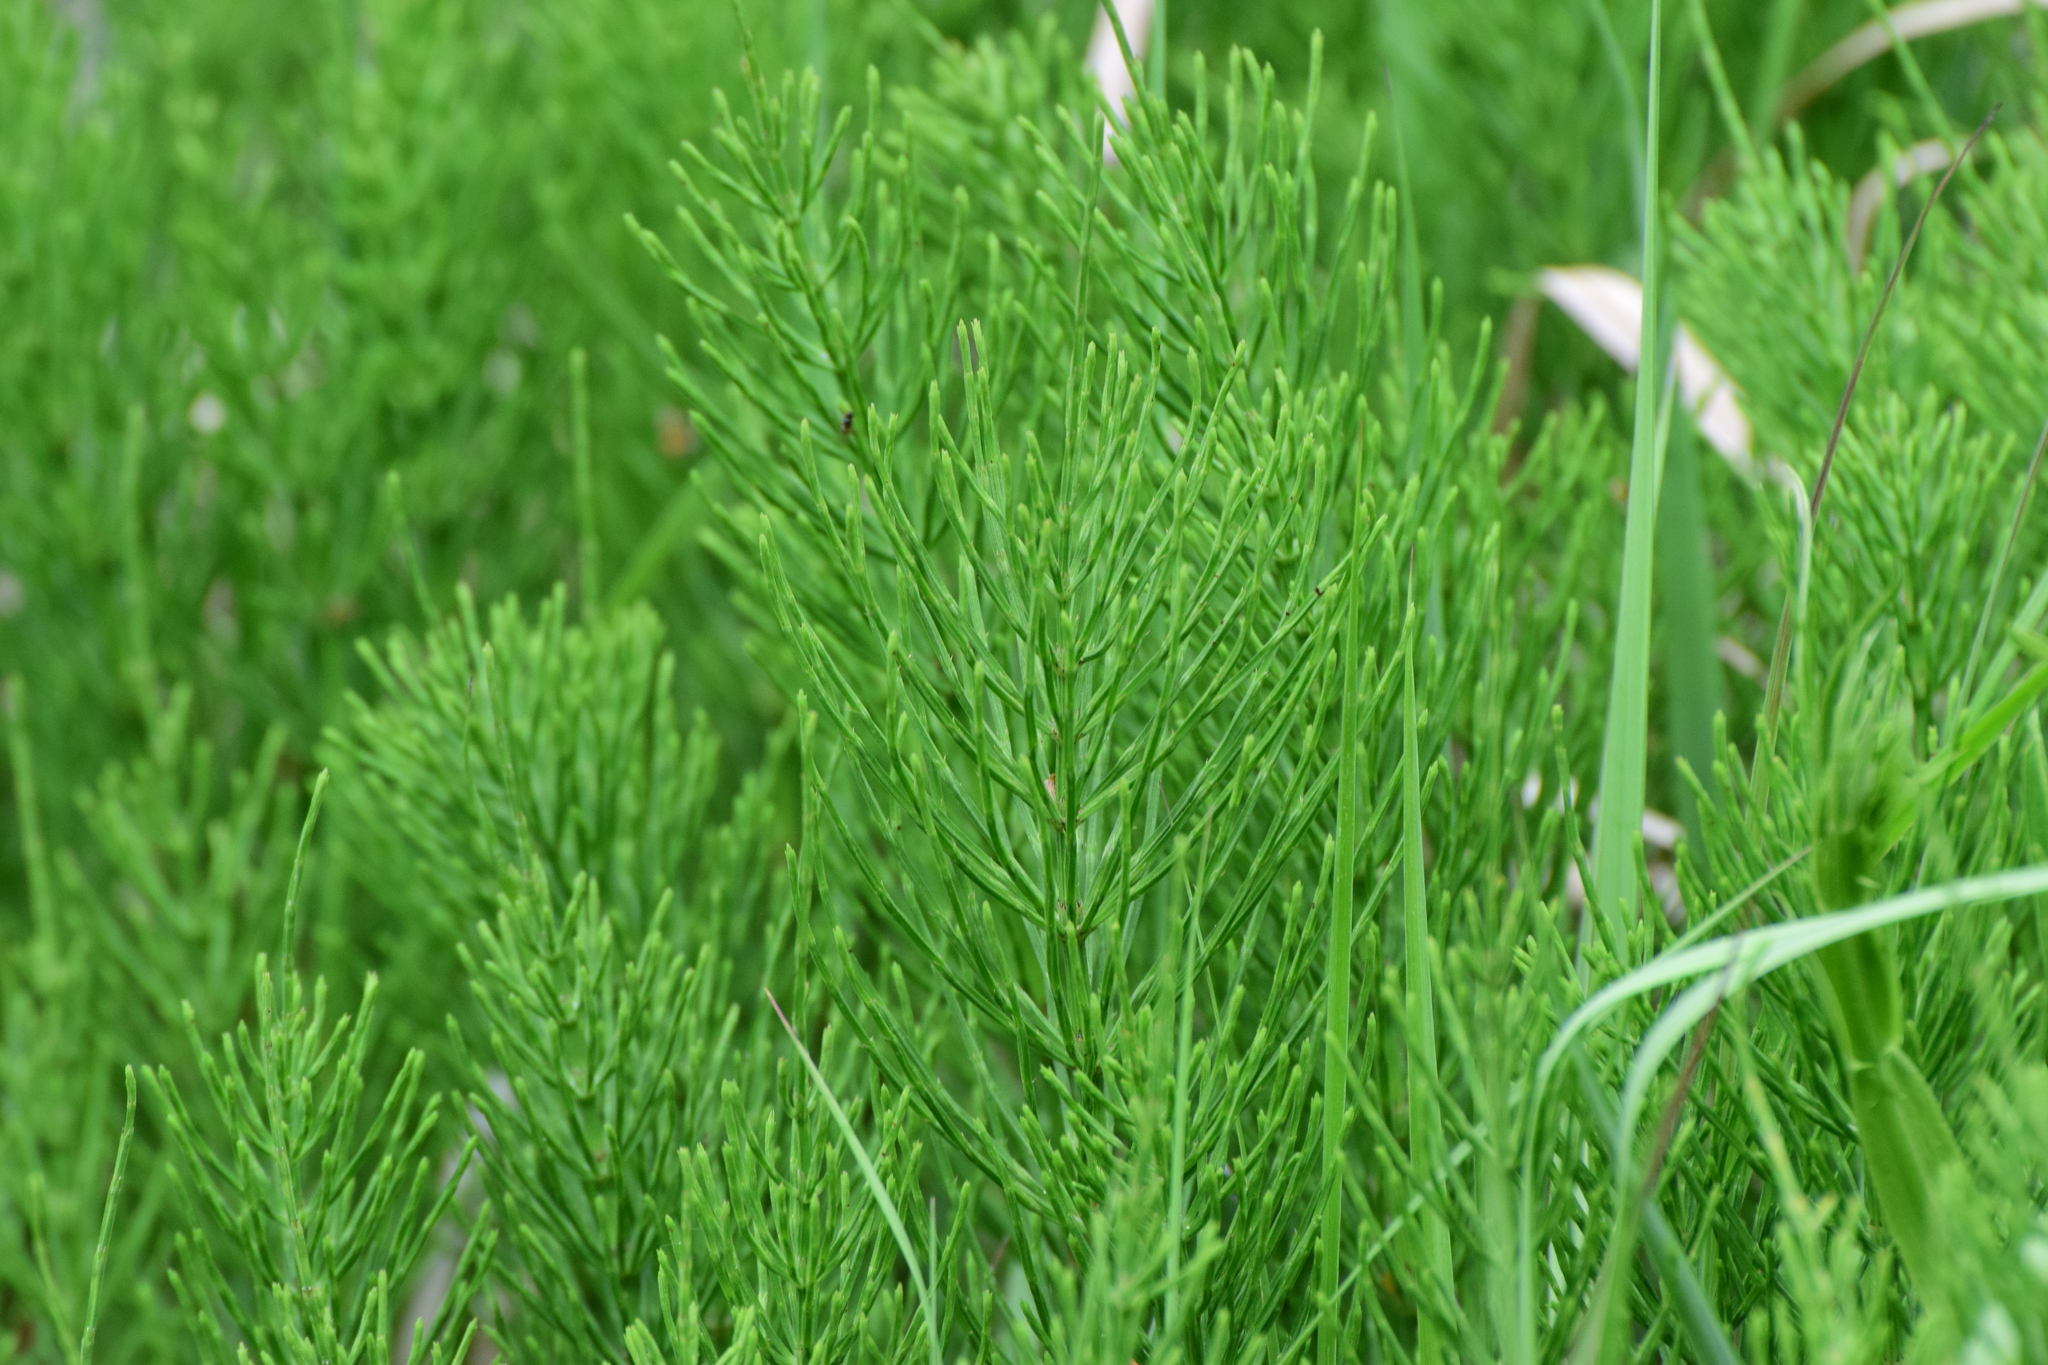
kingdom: Plantae
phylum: Tracheophyta
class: Polypodiopsida
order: Equisetales
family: Equisetaceae
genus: Equisetum
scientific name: Equisetum arvense
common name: Field horsetail
